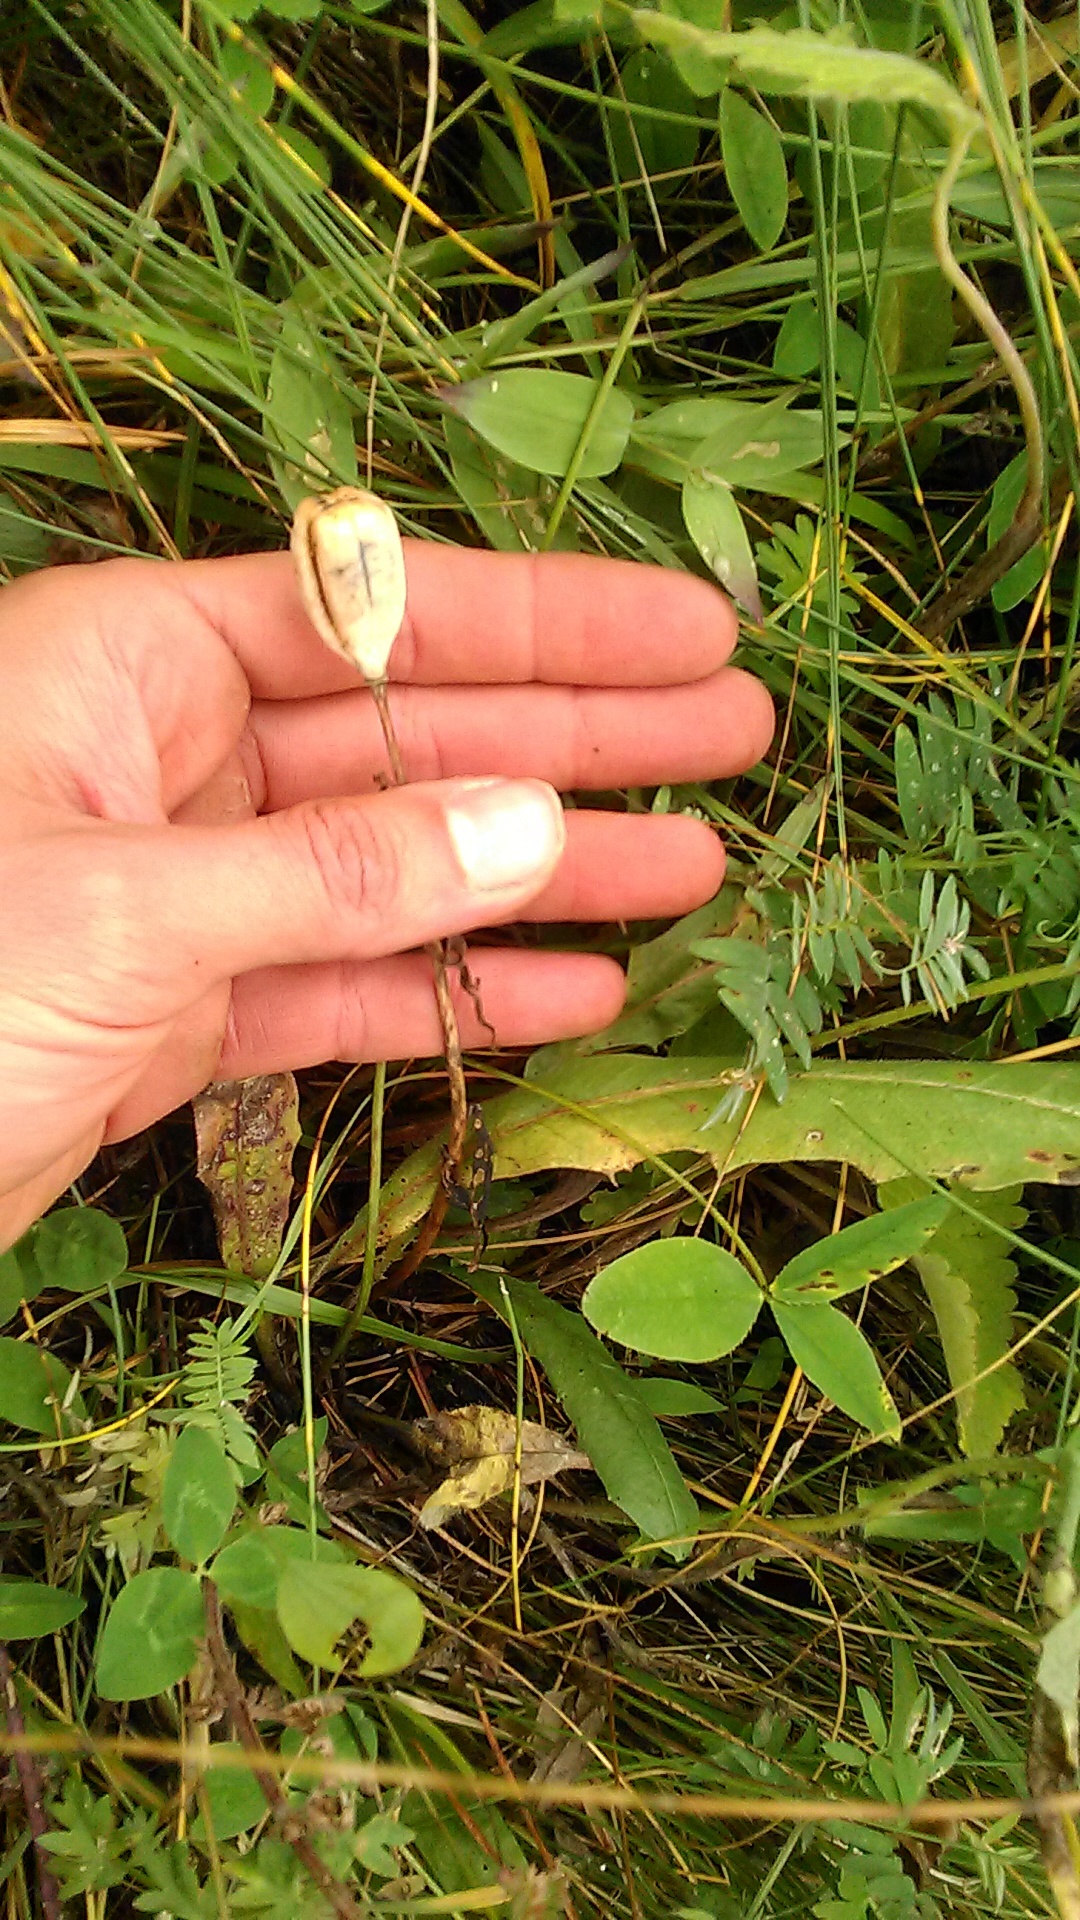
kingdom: Plantae
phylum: Tracheophyta
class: Liliopsida
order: Liliales
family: Liliaceae
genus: Fritillaria
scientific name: Fritillaria collina
